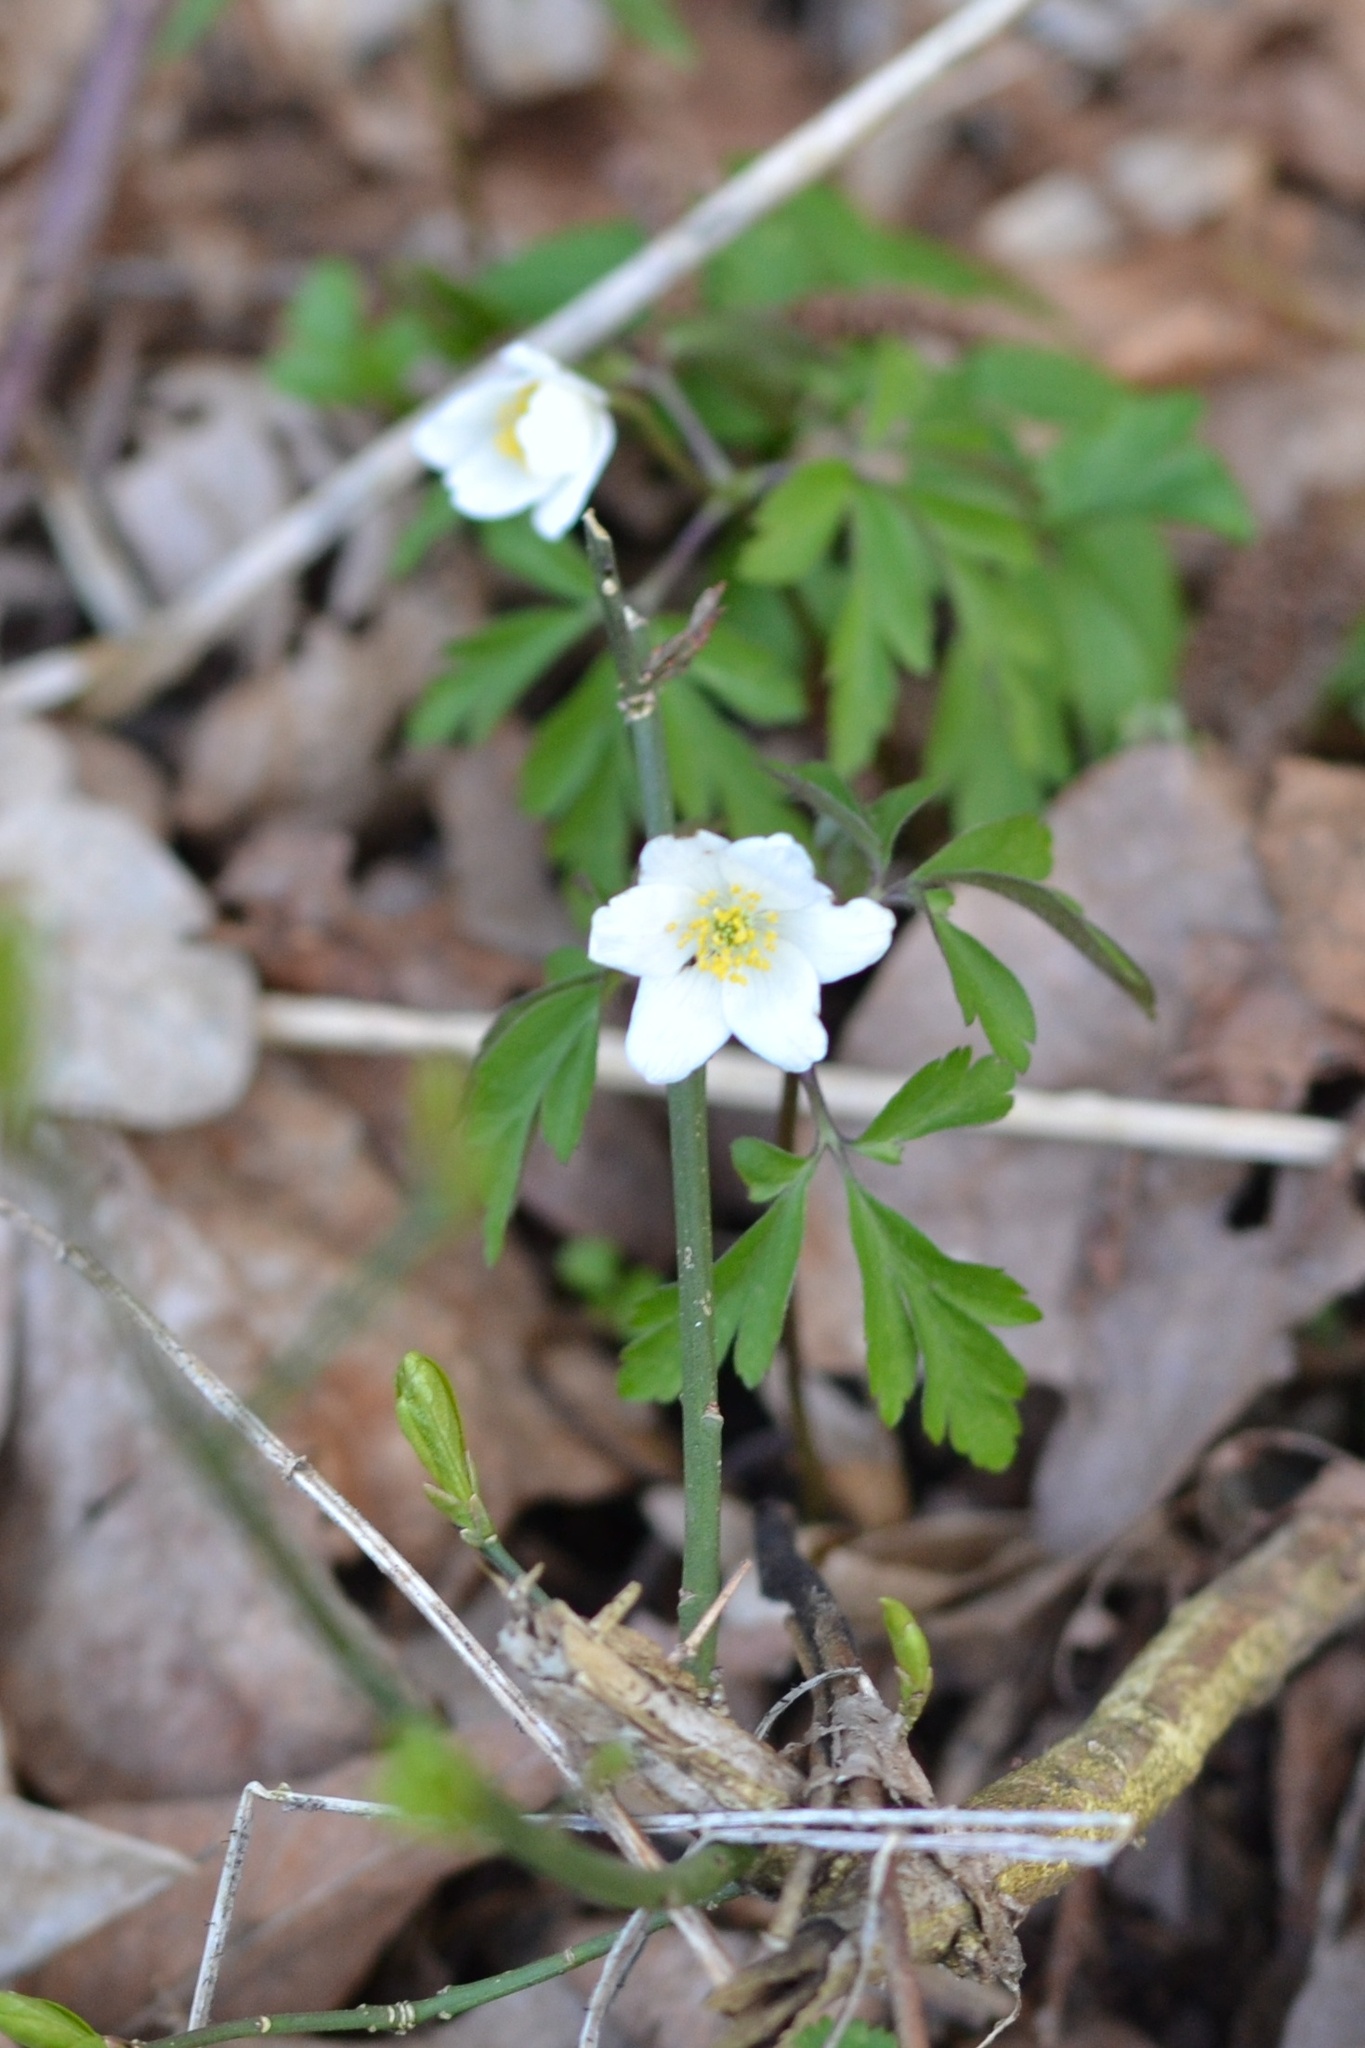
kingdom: Plantae
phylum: Tracheophyta
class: Magnoliopsida
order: Ranunculales
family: Ranunculaceae
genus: Anemone
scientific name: Anemone nemorosa
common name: Wood anemone
